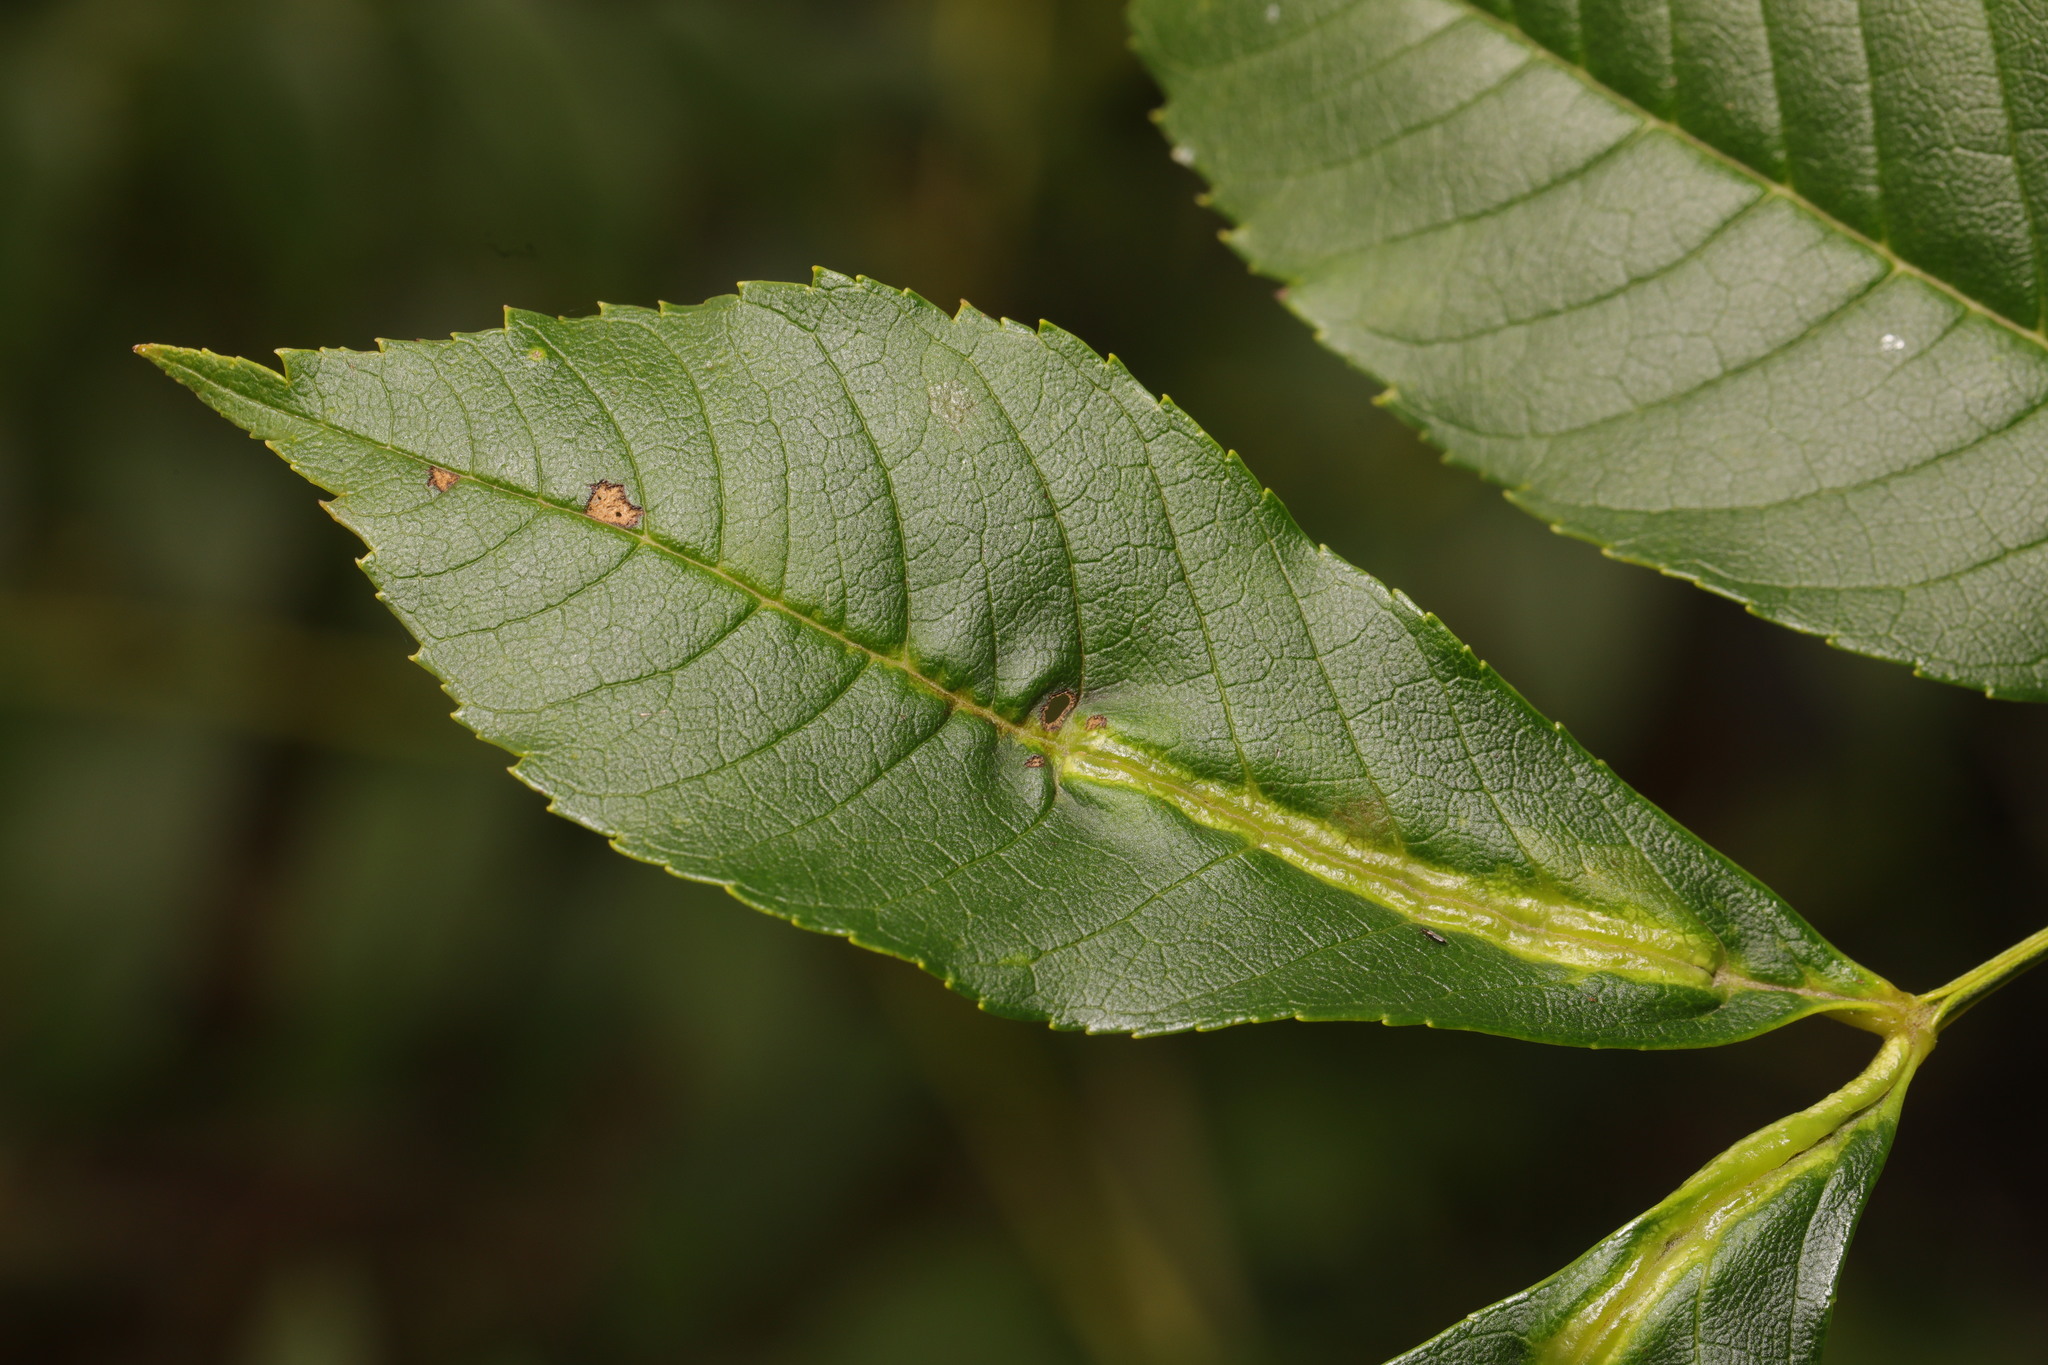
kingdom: Animalia
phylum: Arthropoda
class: Insecta
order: Diptera
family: Cecidomyiidae
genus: Dasineura
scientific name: Dasineura fraxini
